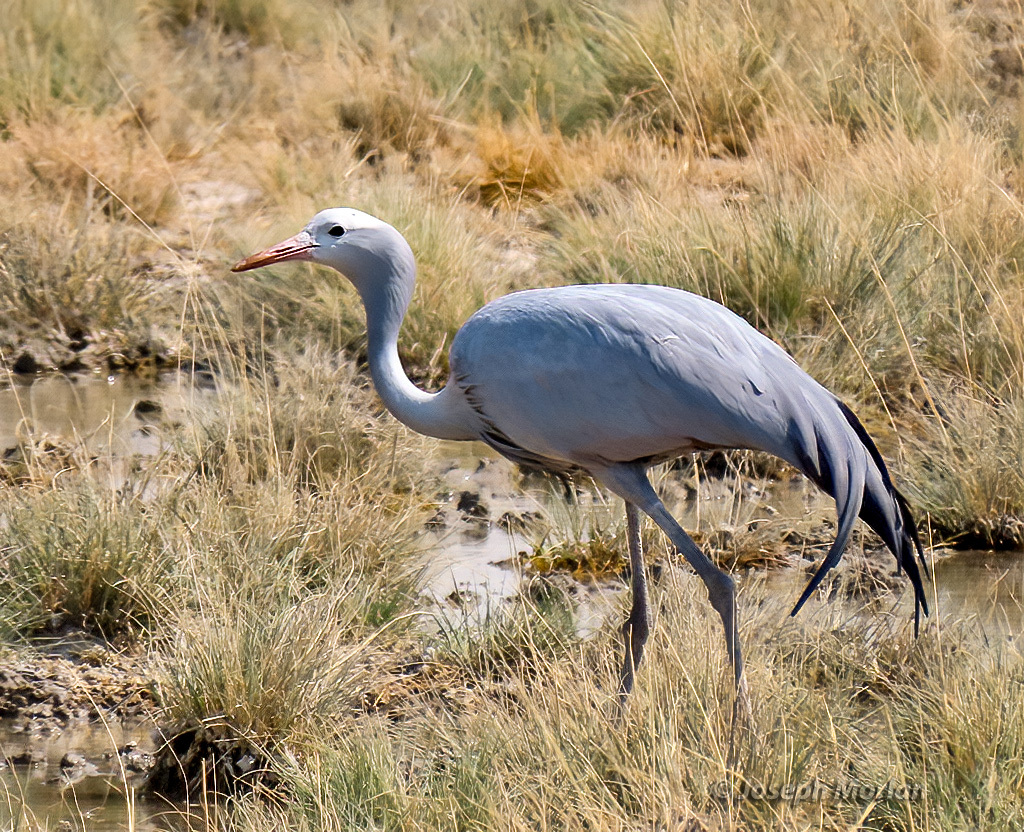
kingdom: Animalia
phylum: Chordata
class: Aves
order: Gruiformes
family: Gruidae
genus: Anthropoides
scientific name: Anthropoides paradiseus
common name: Blue crane
